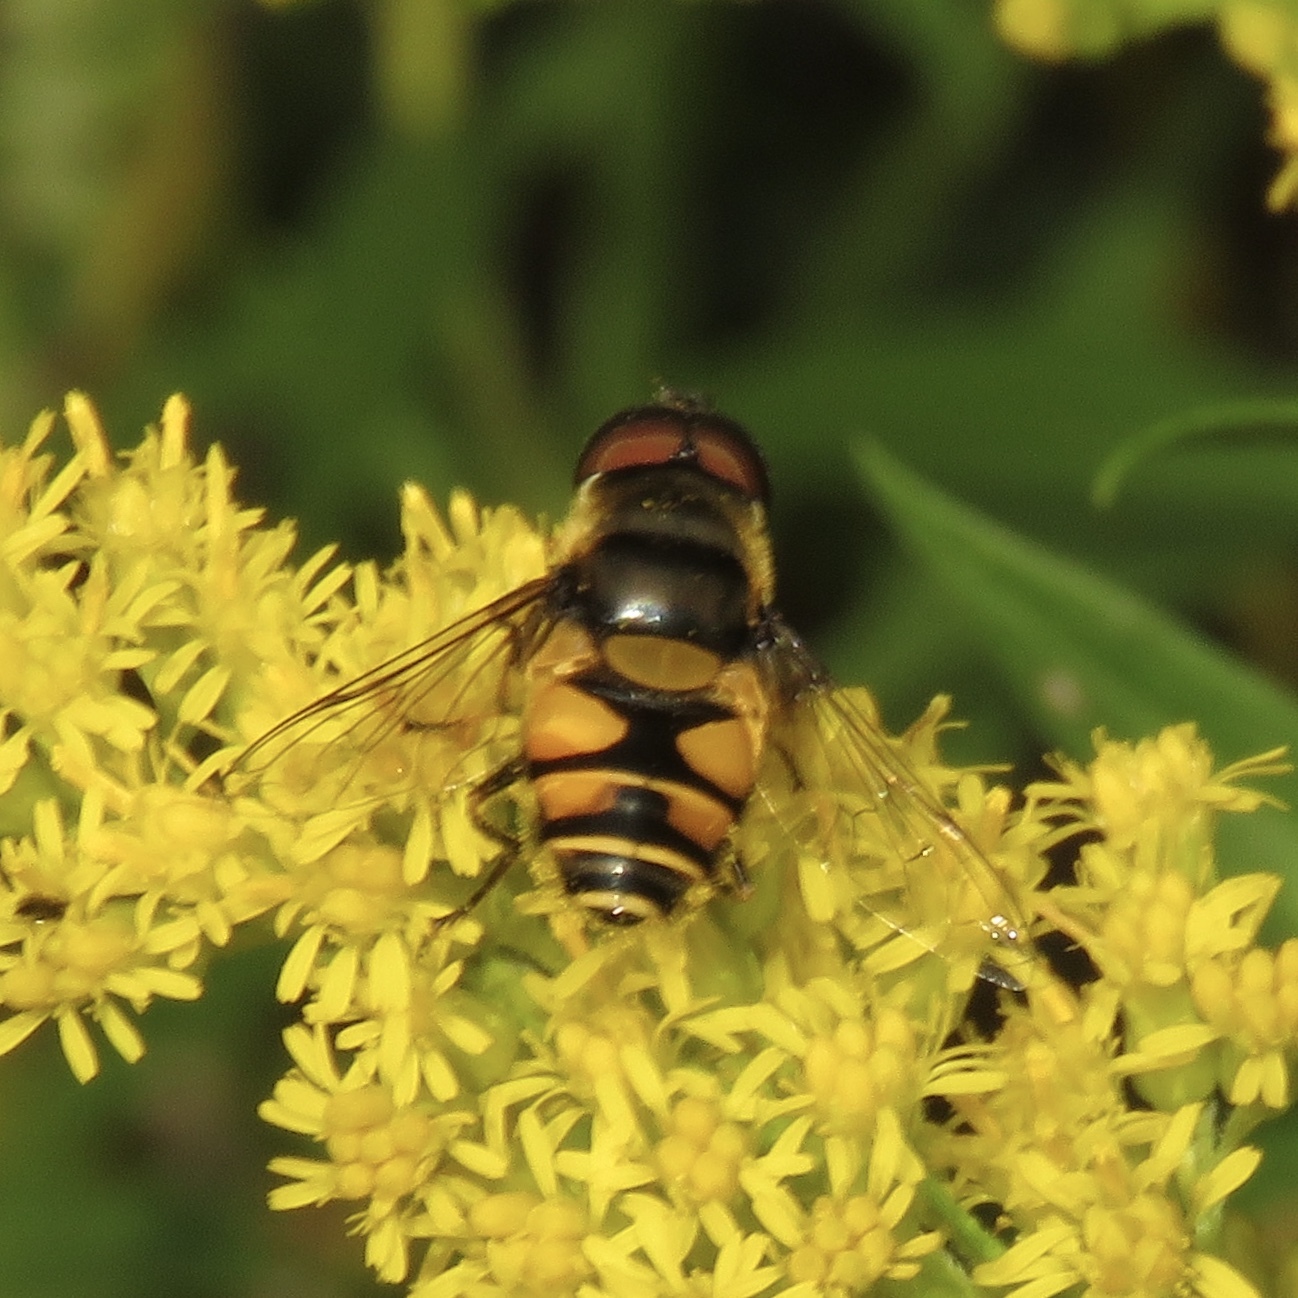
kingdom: Animalia
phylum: Arthropoda
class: Insecta
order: Diptera
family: Syrphidae
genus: Eristalis
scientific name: Eristalis transversa
